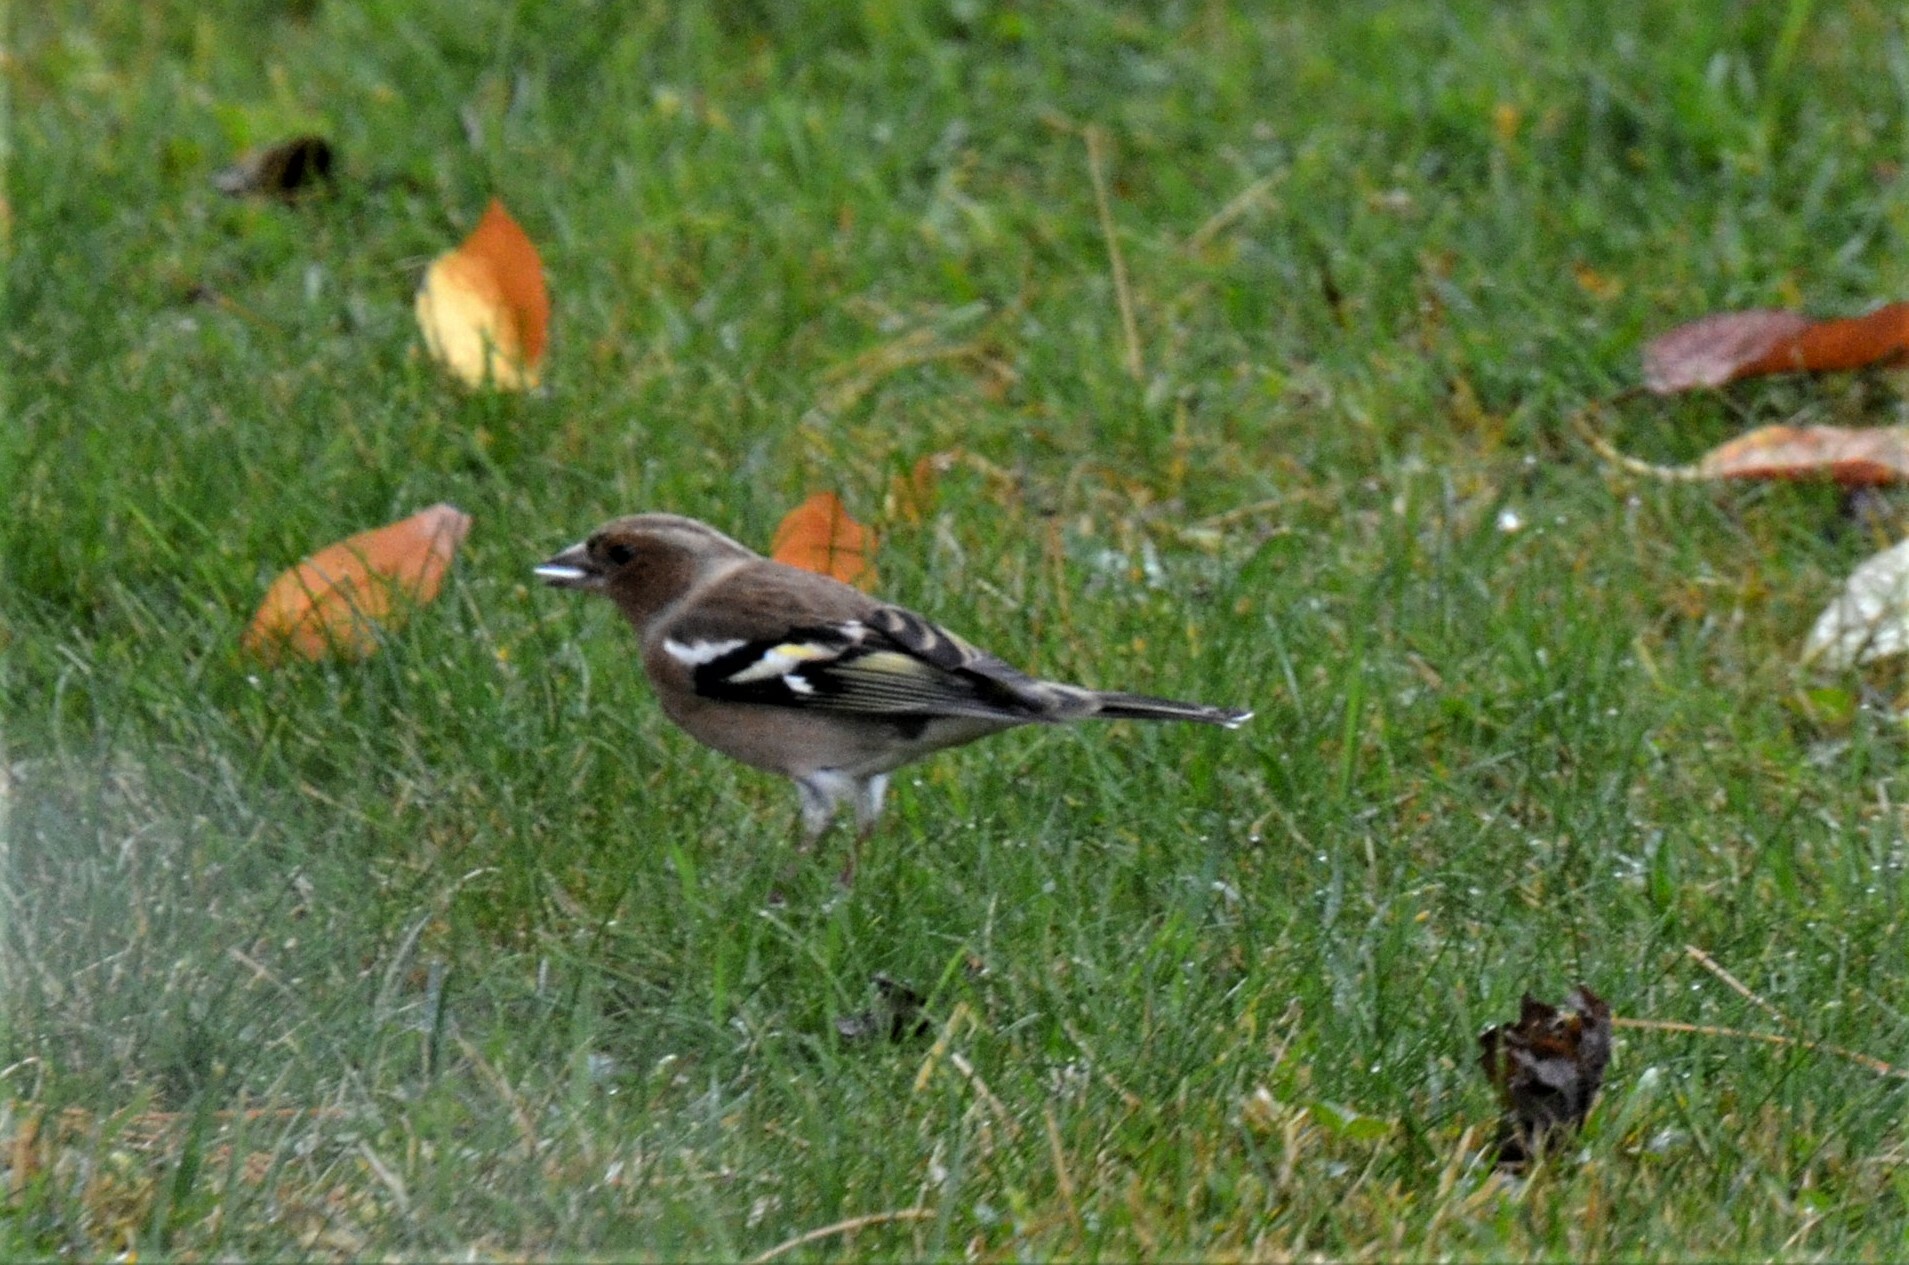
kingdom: Animalia
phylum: Chordata
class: Aves
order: Passeriformes
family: Fringillidae
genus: Fringilla
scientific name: Fringilla coelebs
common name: Common chaffinch
